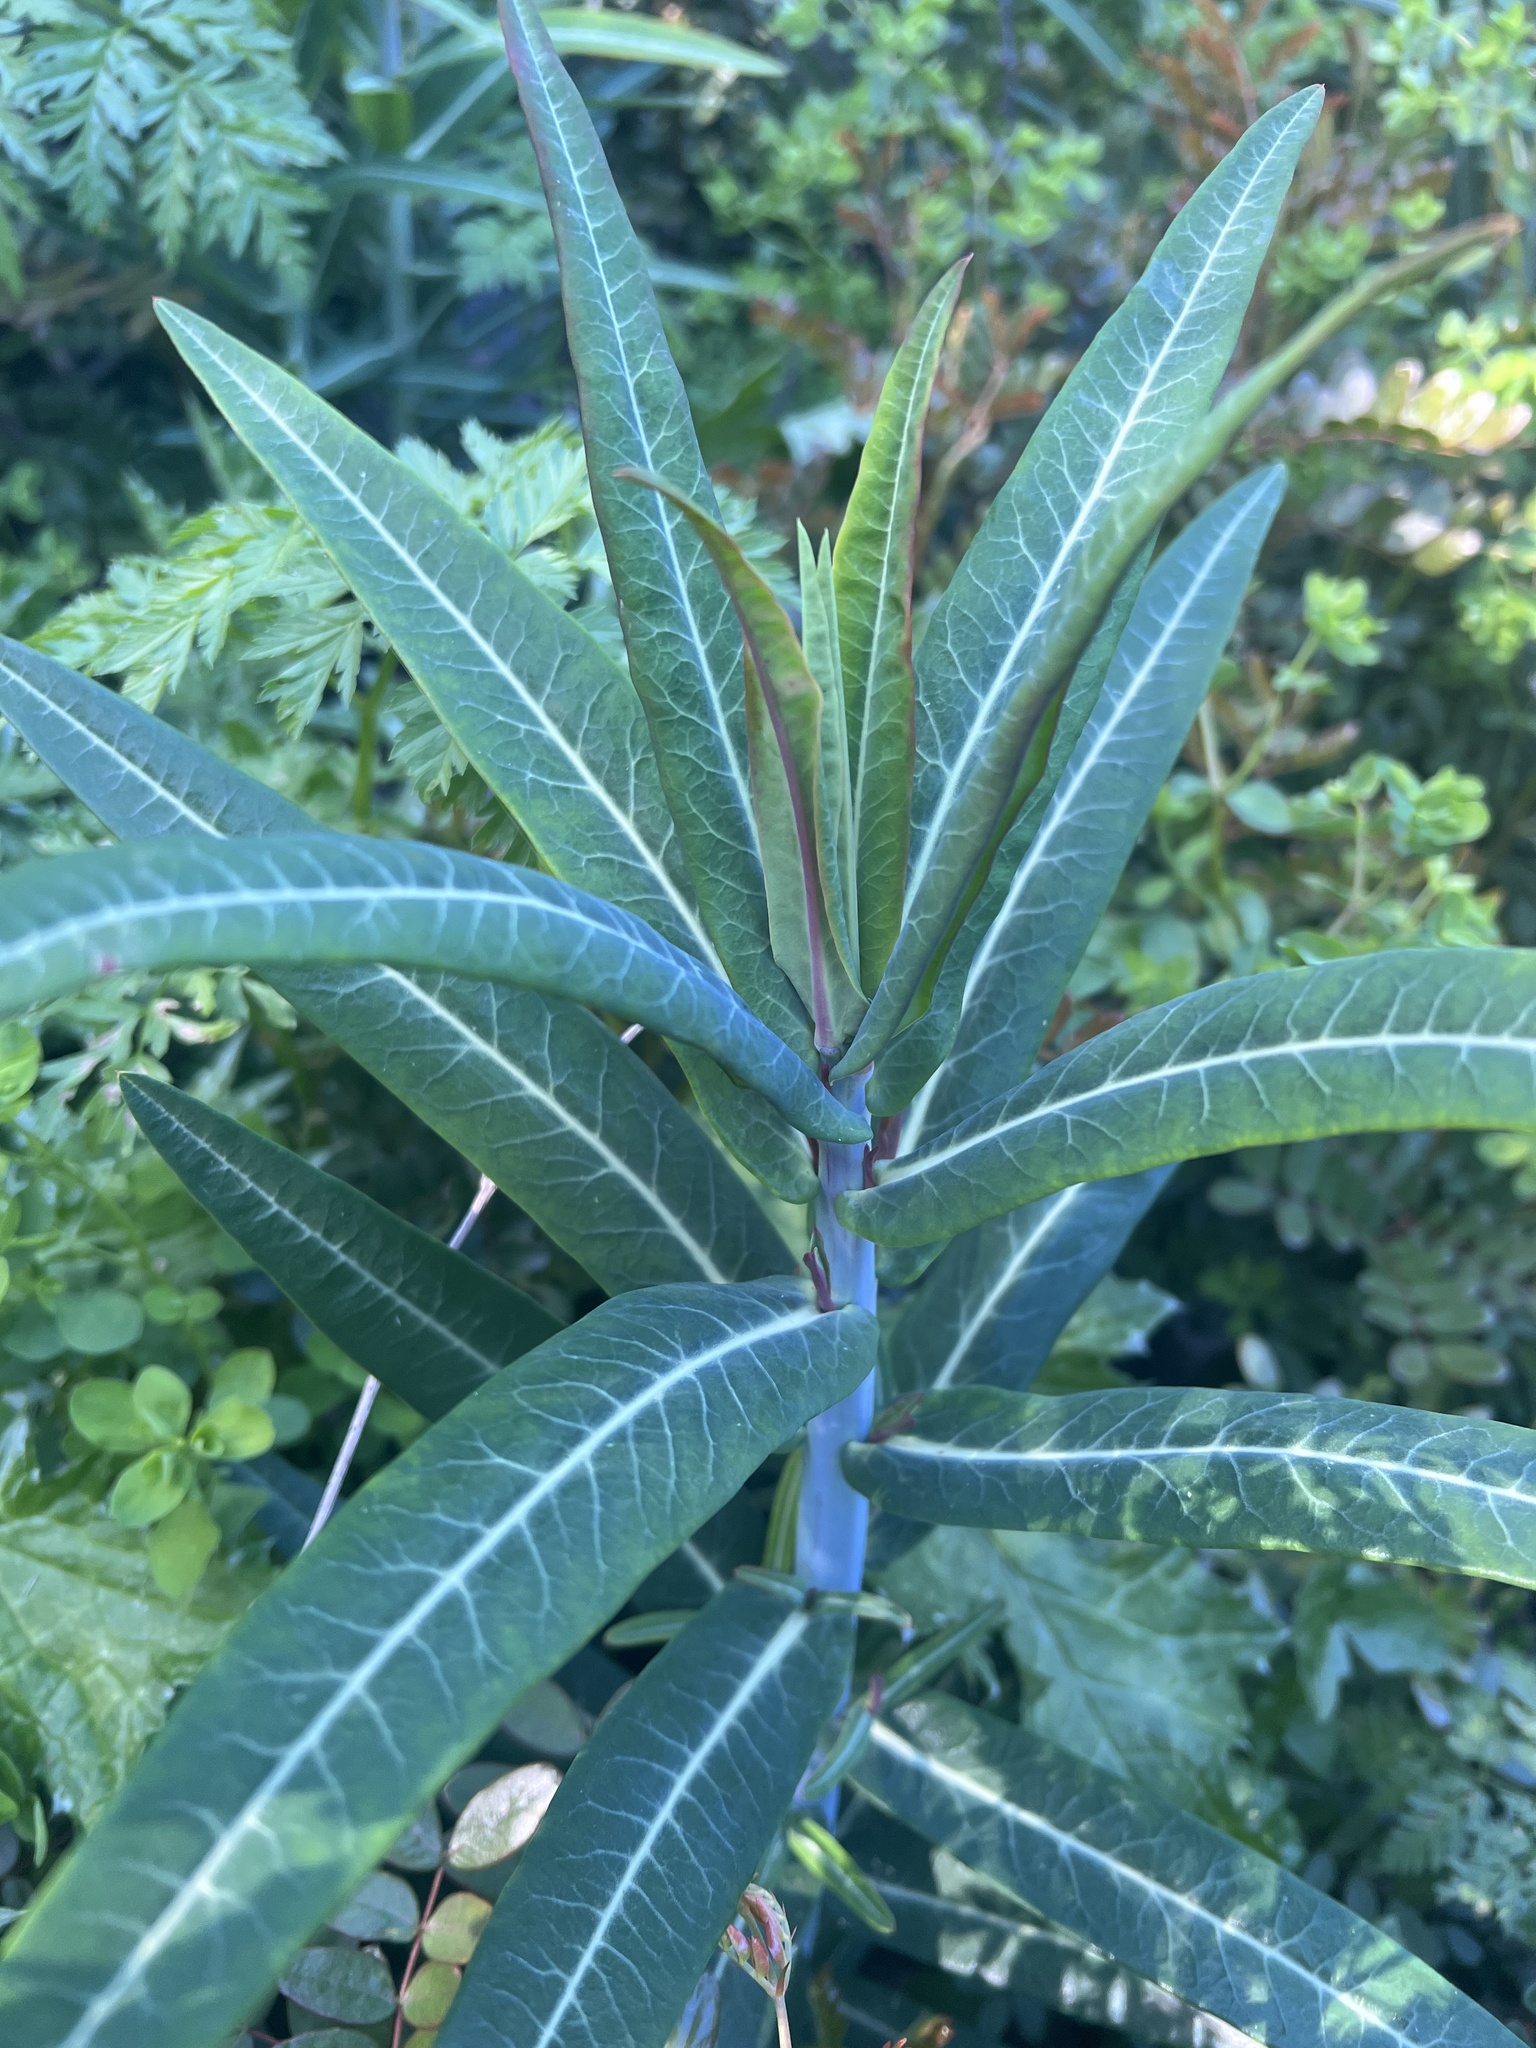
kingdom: Plantae
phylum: Tracheophyta
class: Magnoliopsida
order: Malpighiales
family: Euphorbiaceae
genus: Euphorbia
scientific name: Euphorbia lathyris
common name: Caper spurge
